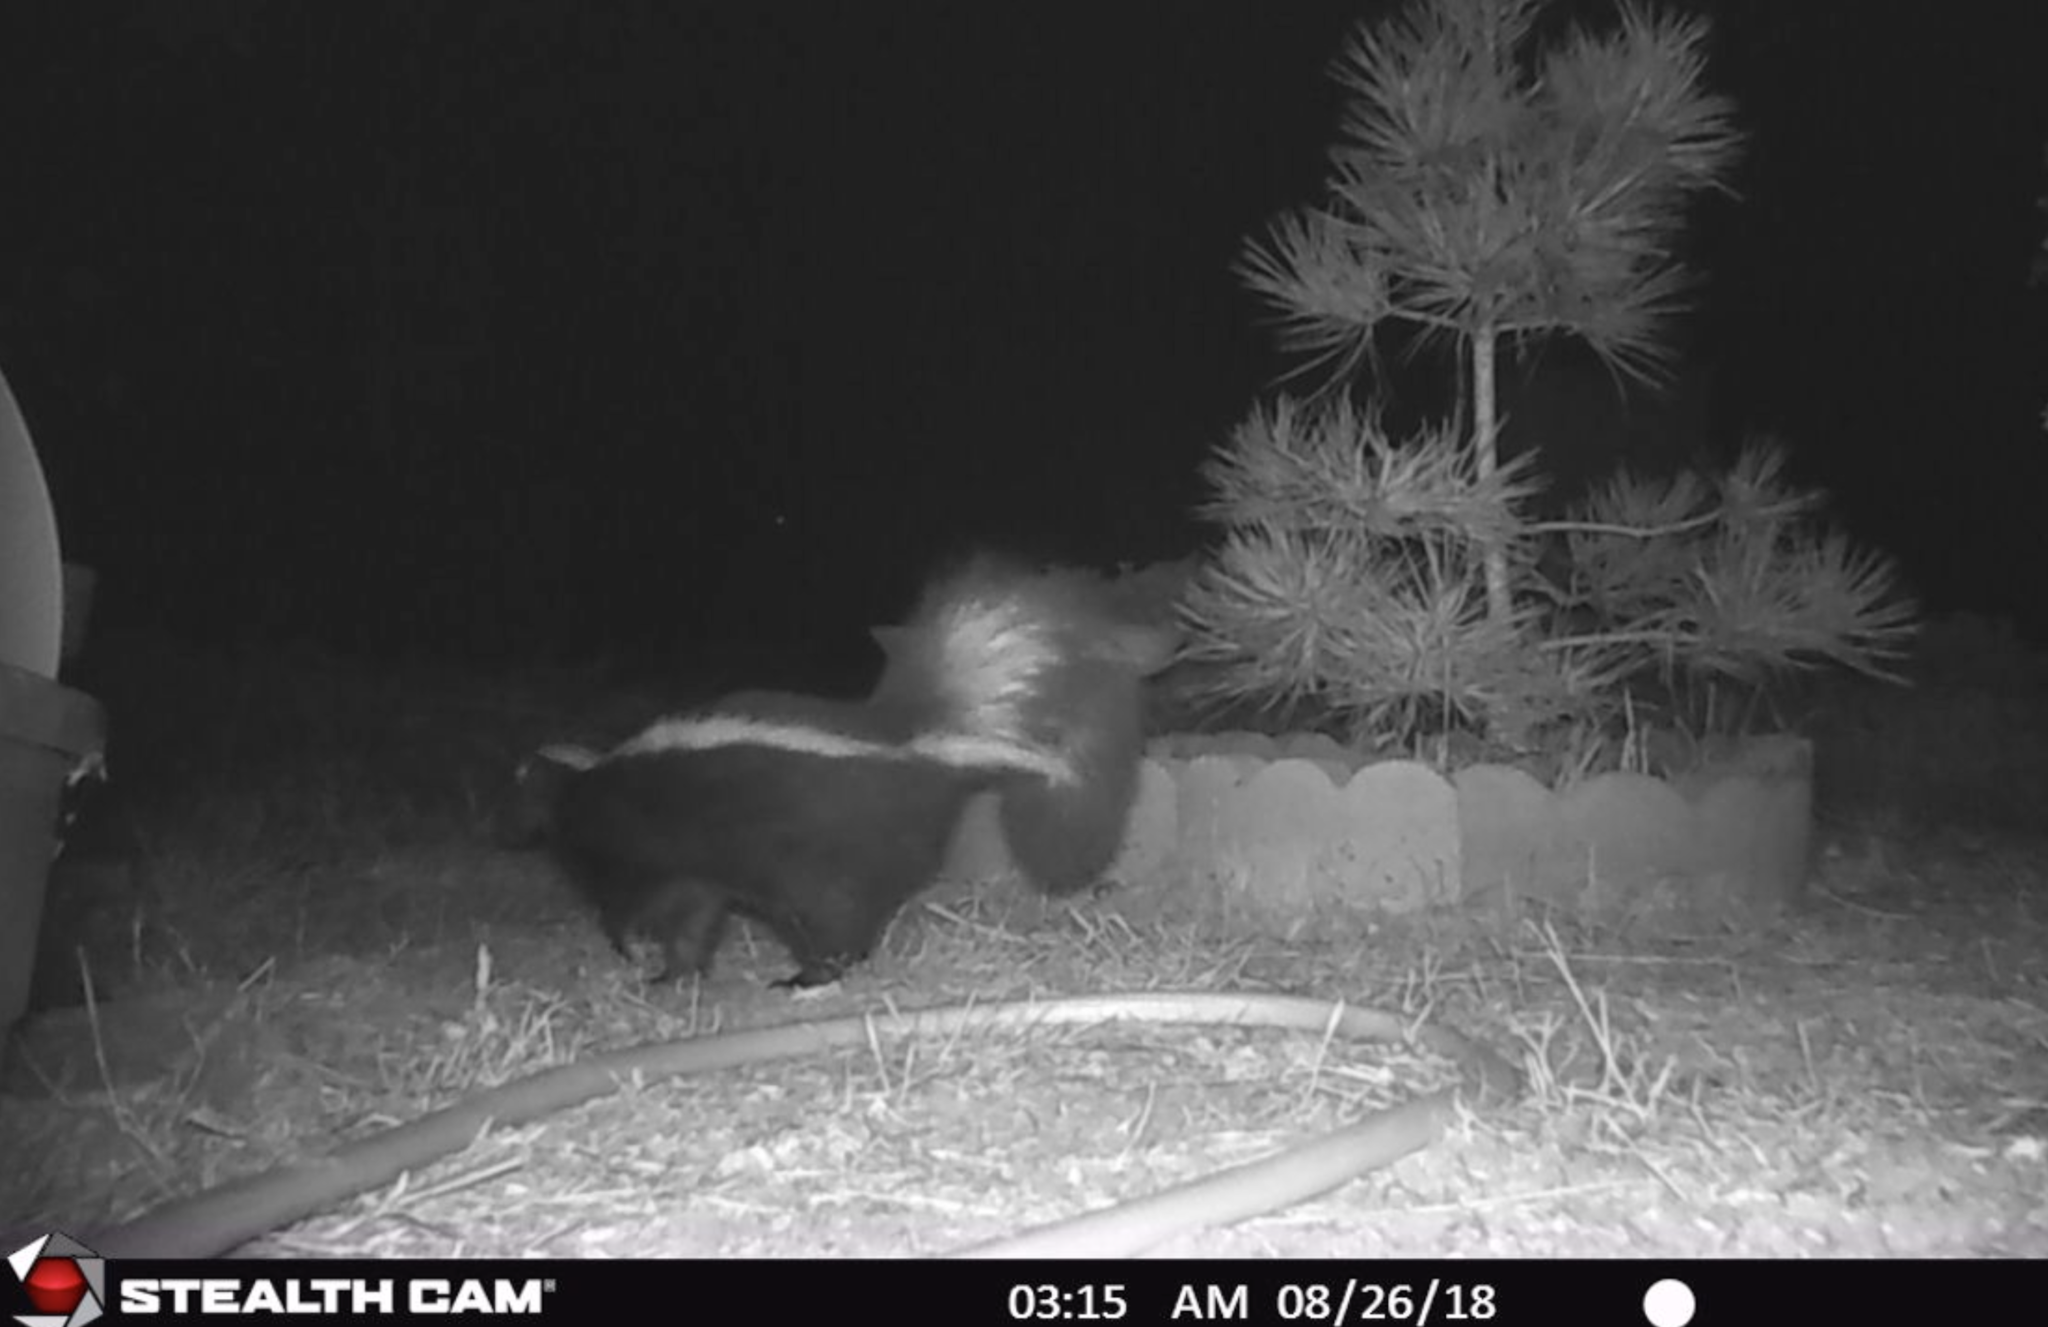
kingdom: Animalia
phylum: Chordata
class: Mammalia
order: Carnivora
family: Mephitidae
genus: Mephitis
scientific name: Mephitis mephitis
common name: Striped skunk
